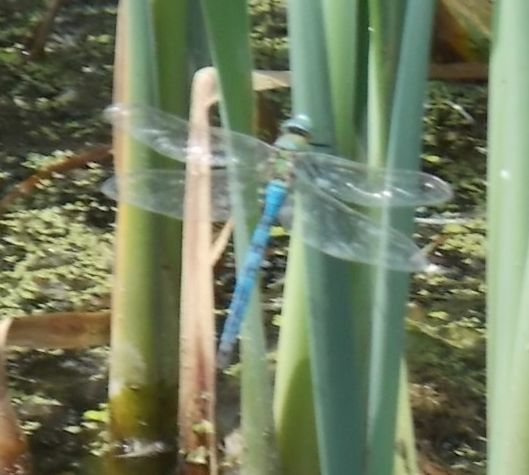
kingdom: Animalia
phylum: Arthropoda
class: Insecta
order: Odonata
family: Aeshnidae
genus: Anax
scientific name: Anax imperator
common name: Emperor dragonfly
